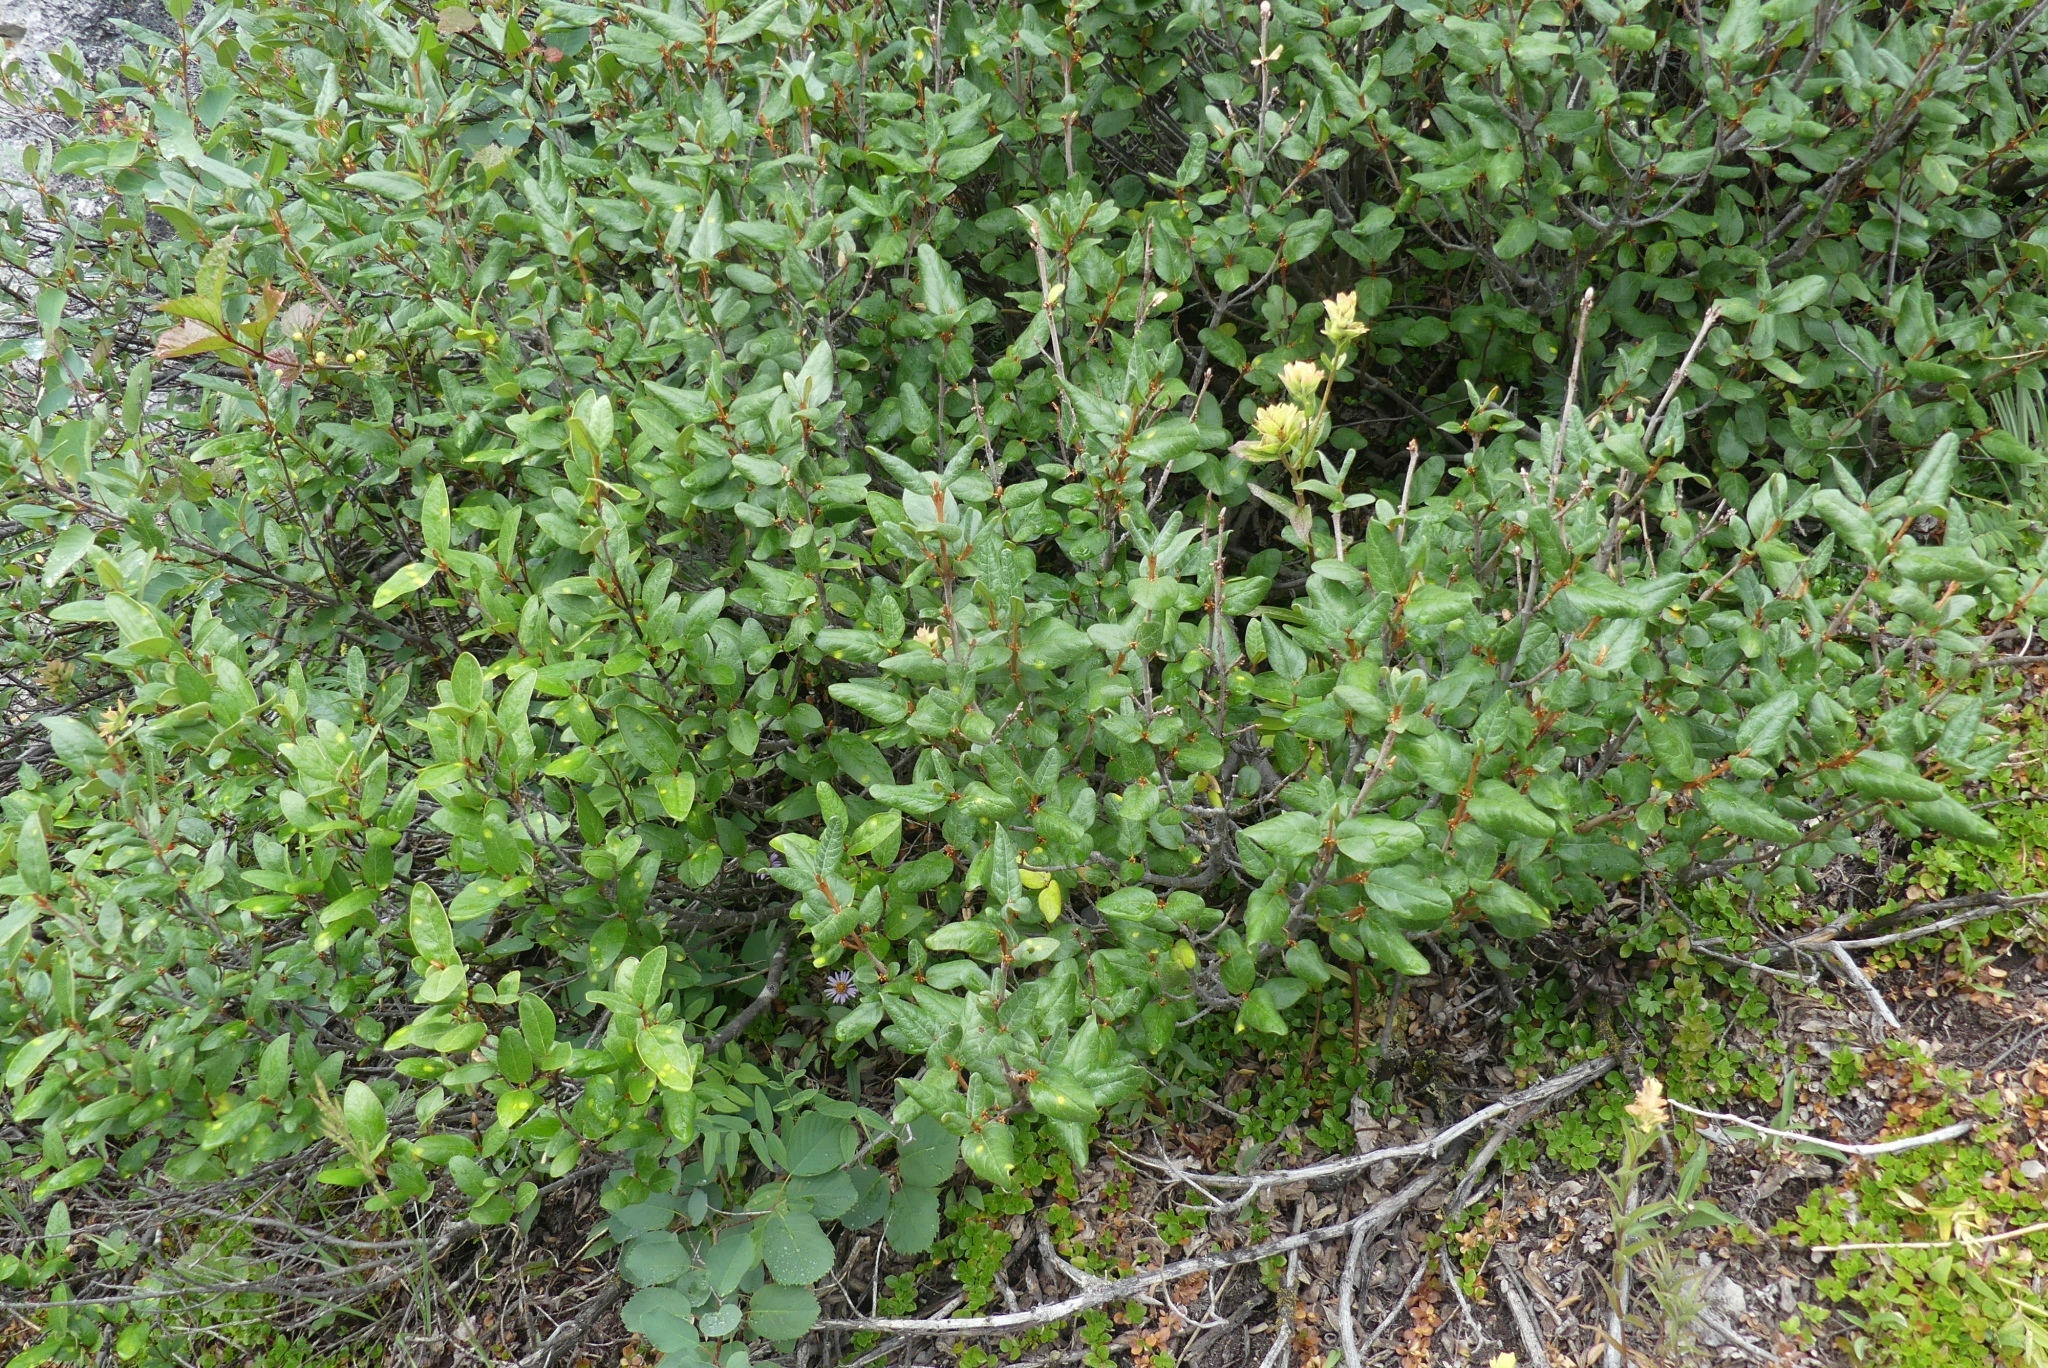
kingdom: Plantae
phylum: Tracheophyta
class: Magnoliopsida
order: Rosales
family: Elaeagnaceae
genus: Shepherdia
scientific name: Shepherdia canadensis
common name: Soapberry
